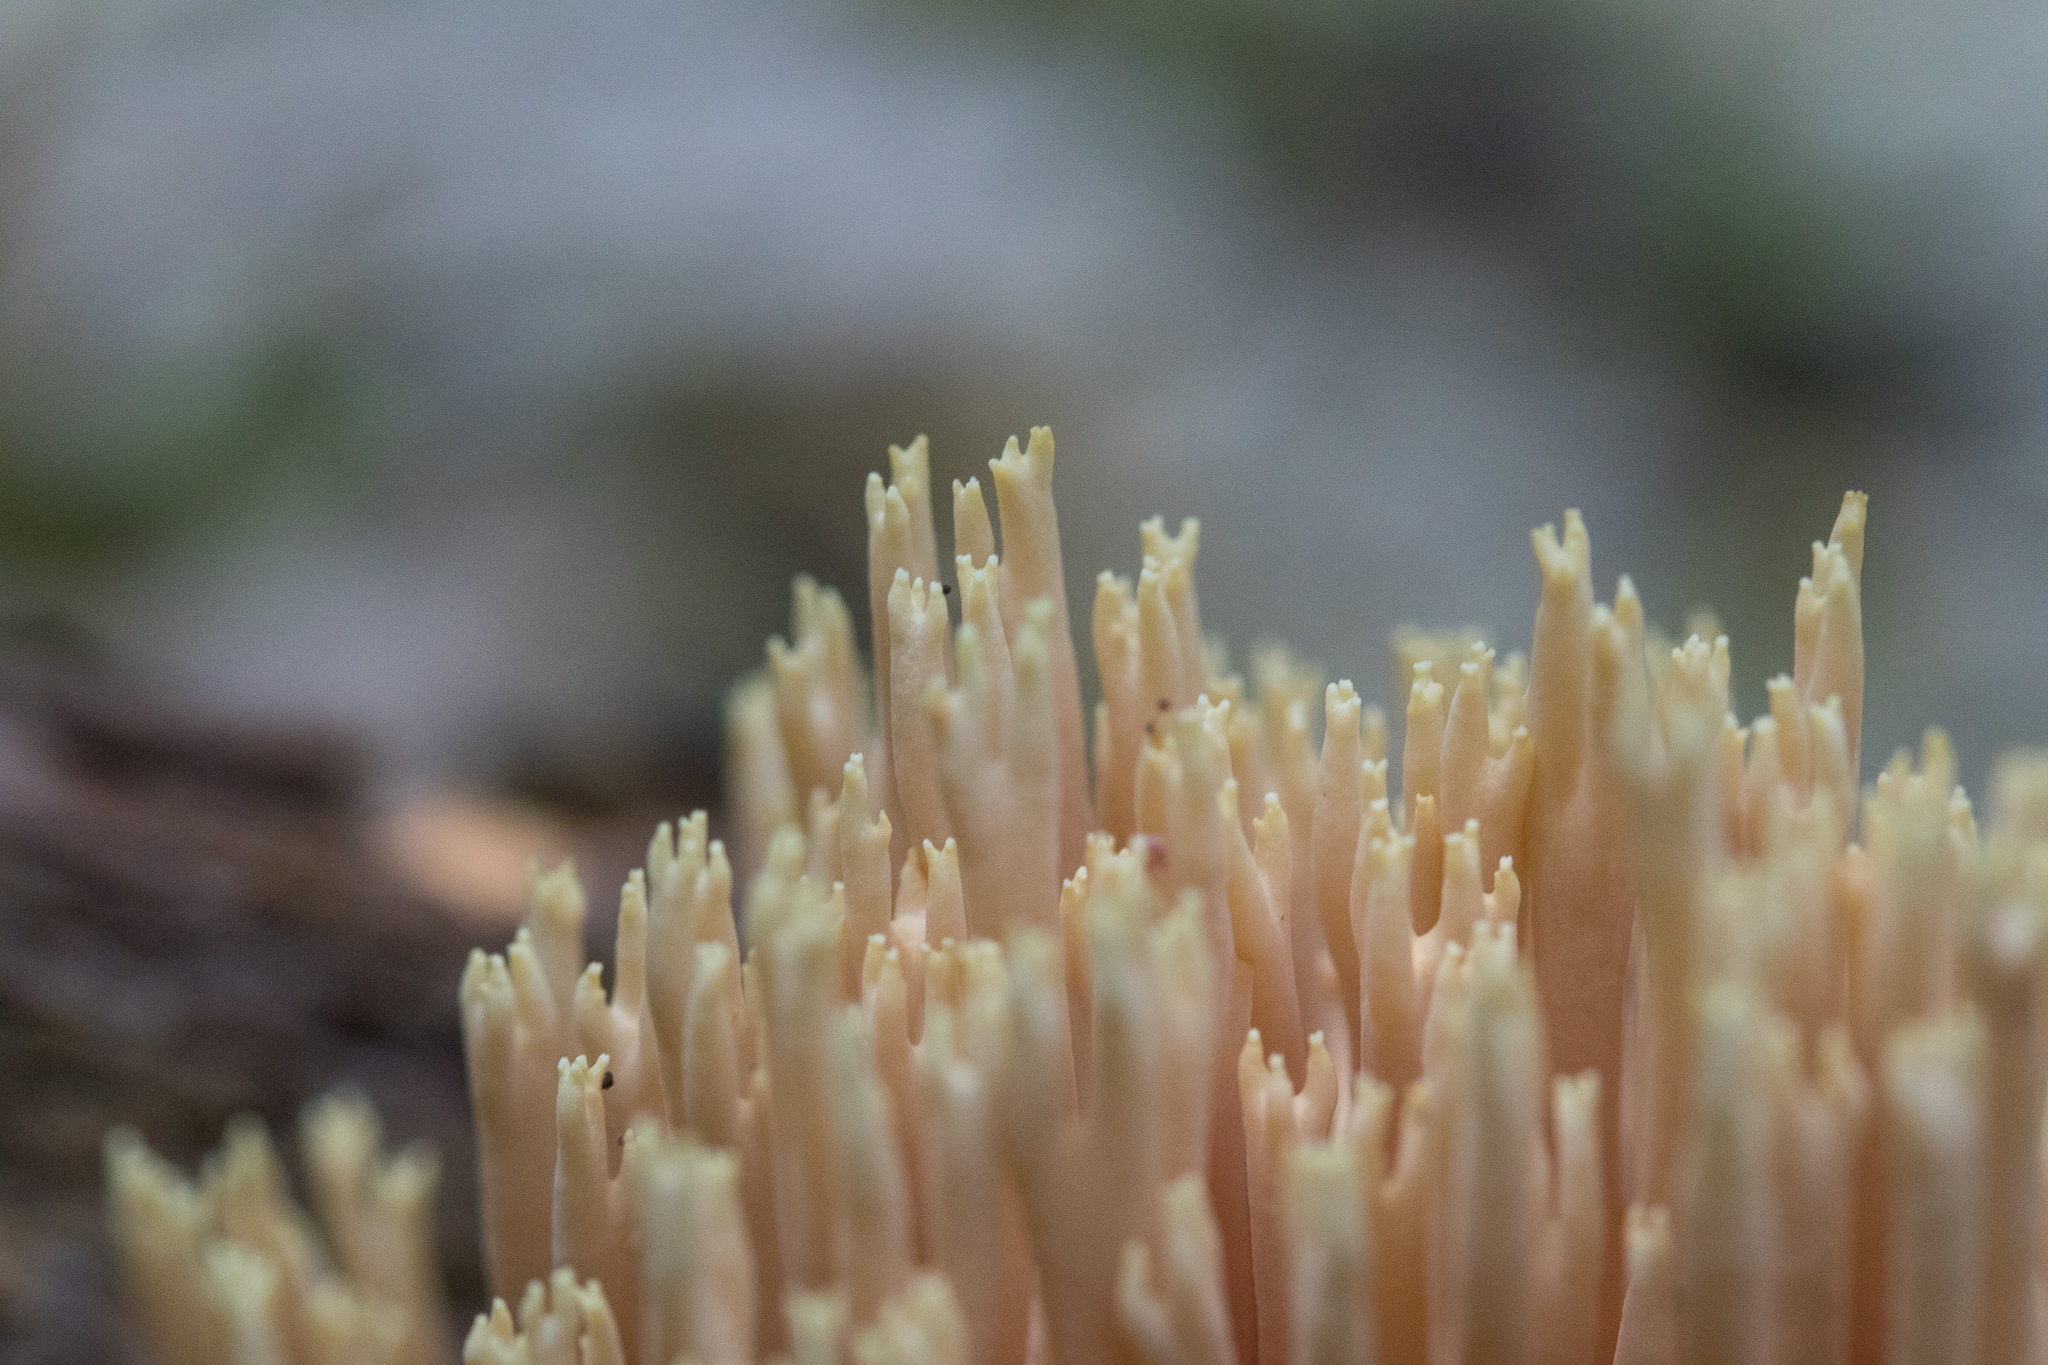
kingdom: Fungi
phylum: Basidiomycota
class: Agaricomycetes
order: Russulales
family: Auriscalpiaceae
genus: Artomyces
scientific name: Artomyces pyxidatus
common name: Crown-tipped coral fungus
